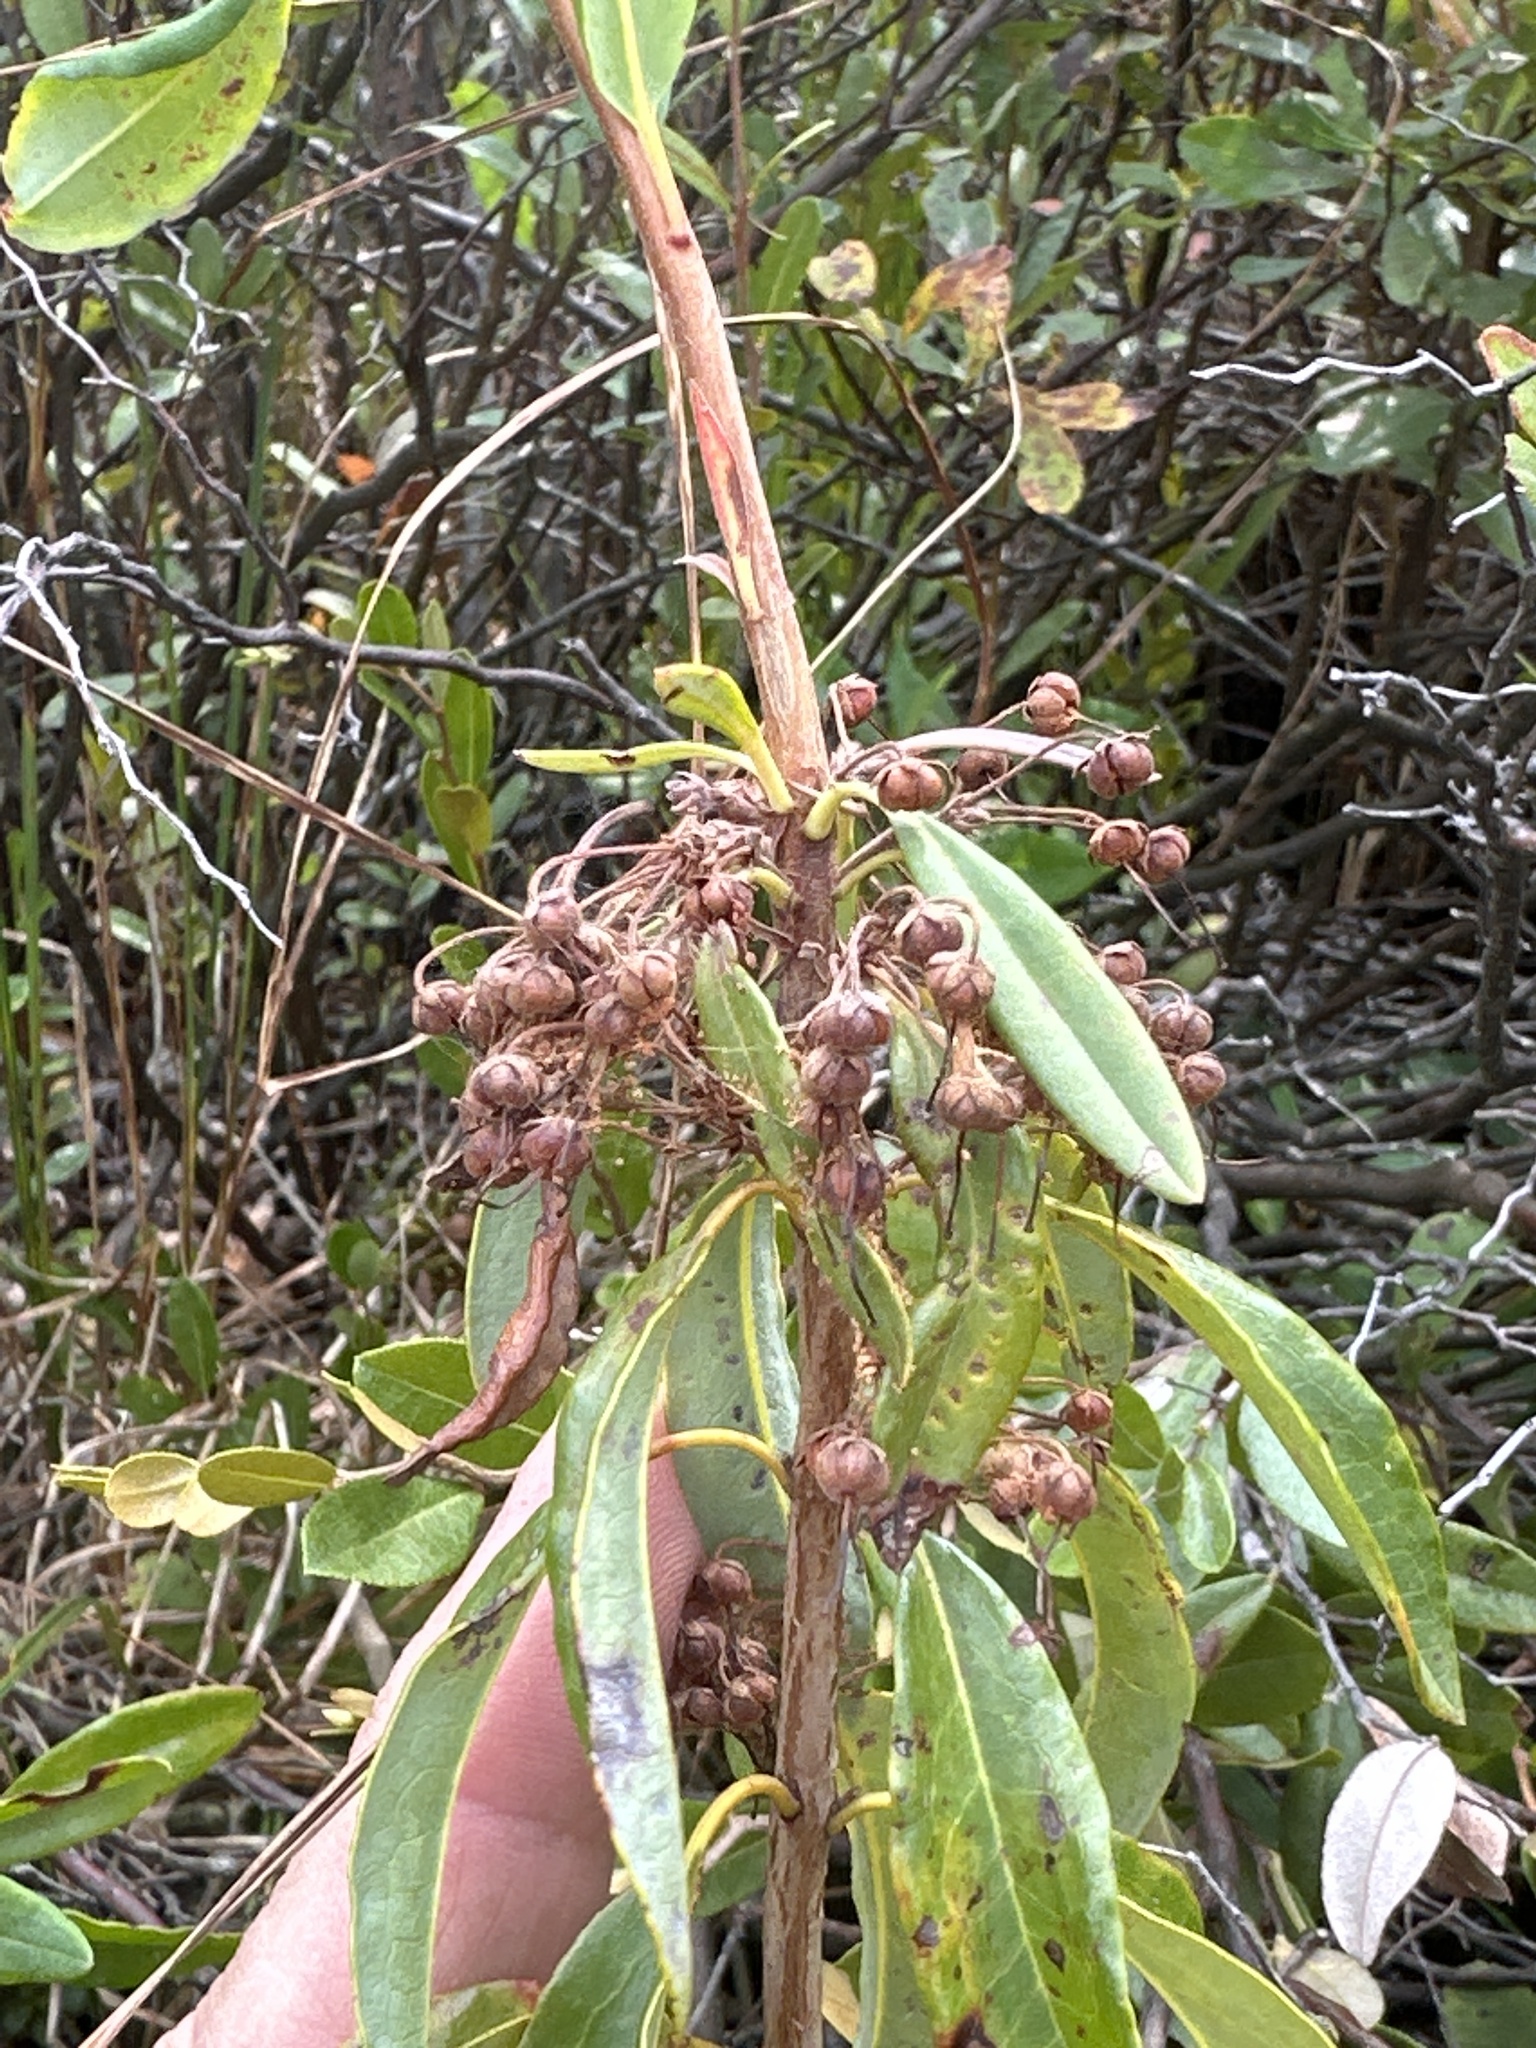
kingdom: Plantae
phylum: Tracheophyta
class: Magnoliopsida
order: Ericales
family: Ericaceae
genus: Kalmia
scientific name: Kalmia angustifolia
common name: Sheep-laurel
